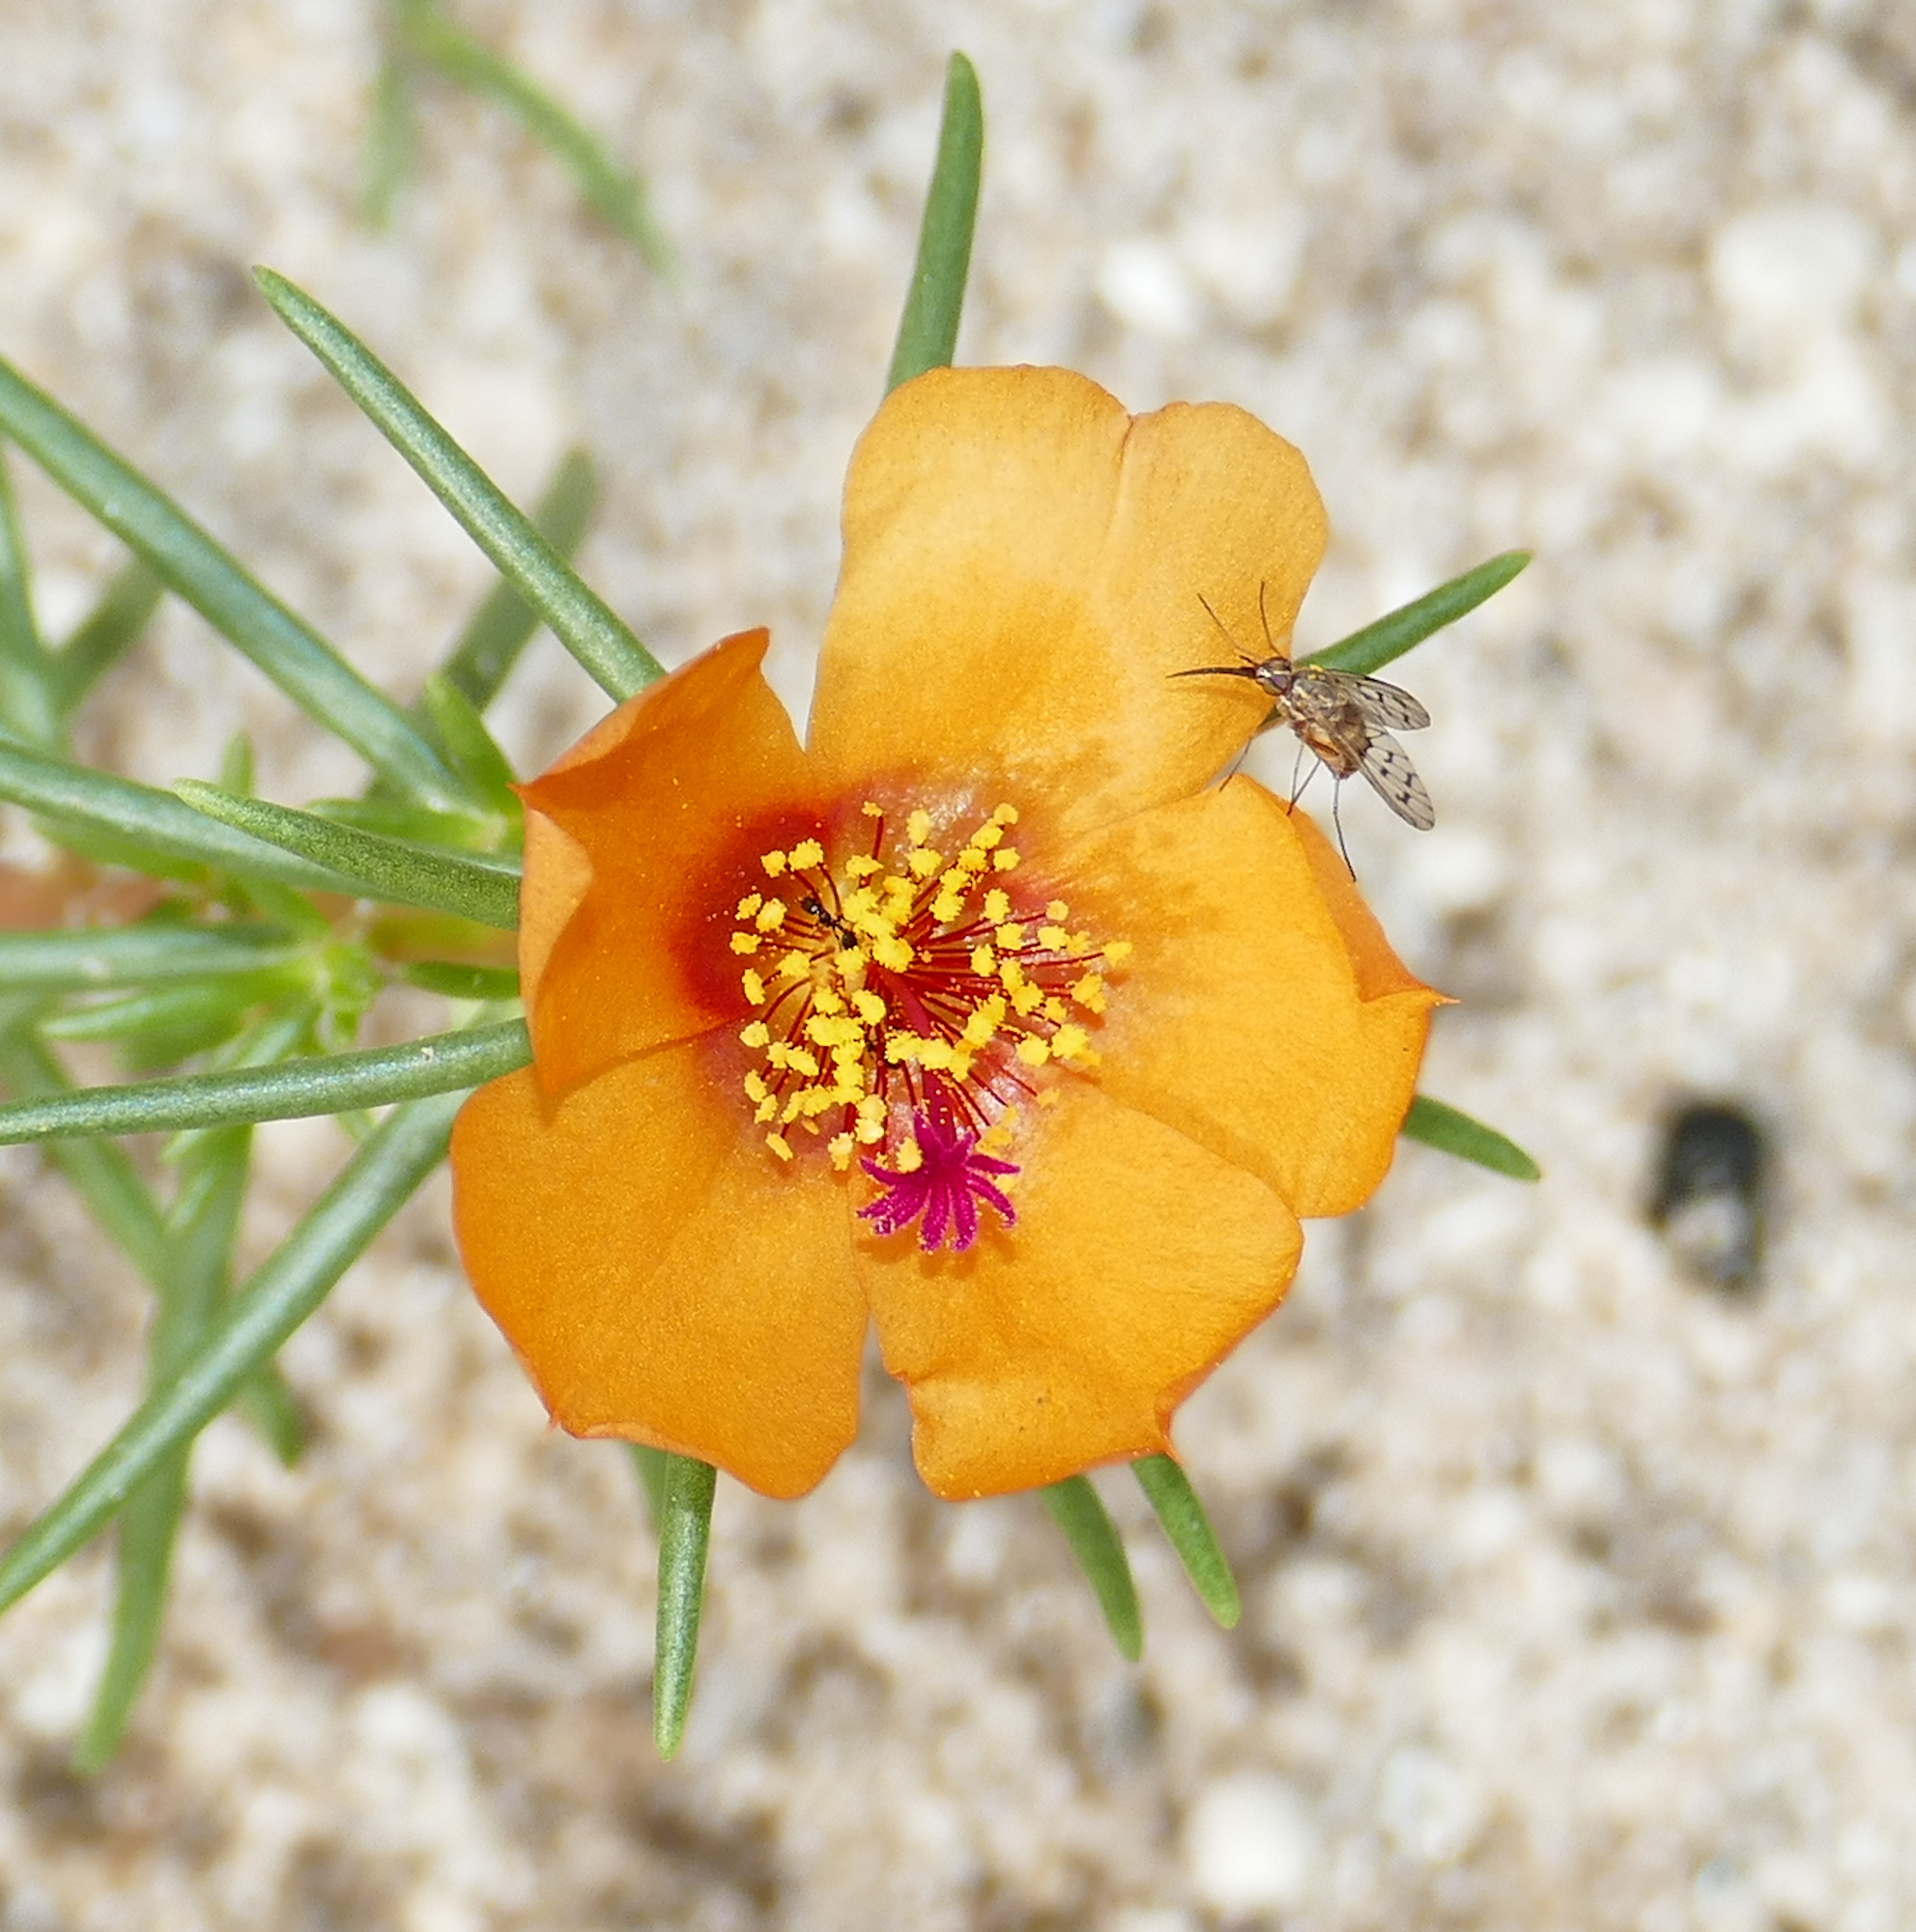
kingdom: Plantae
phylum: Tracheophyta
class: Magnoliopsida
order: Caryophyllales
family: Portulacaceae
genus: Portulaca
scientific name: Portulaca suffrutescens
